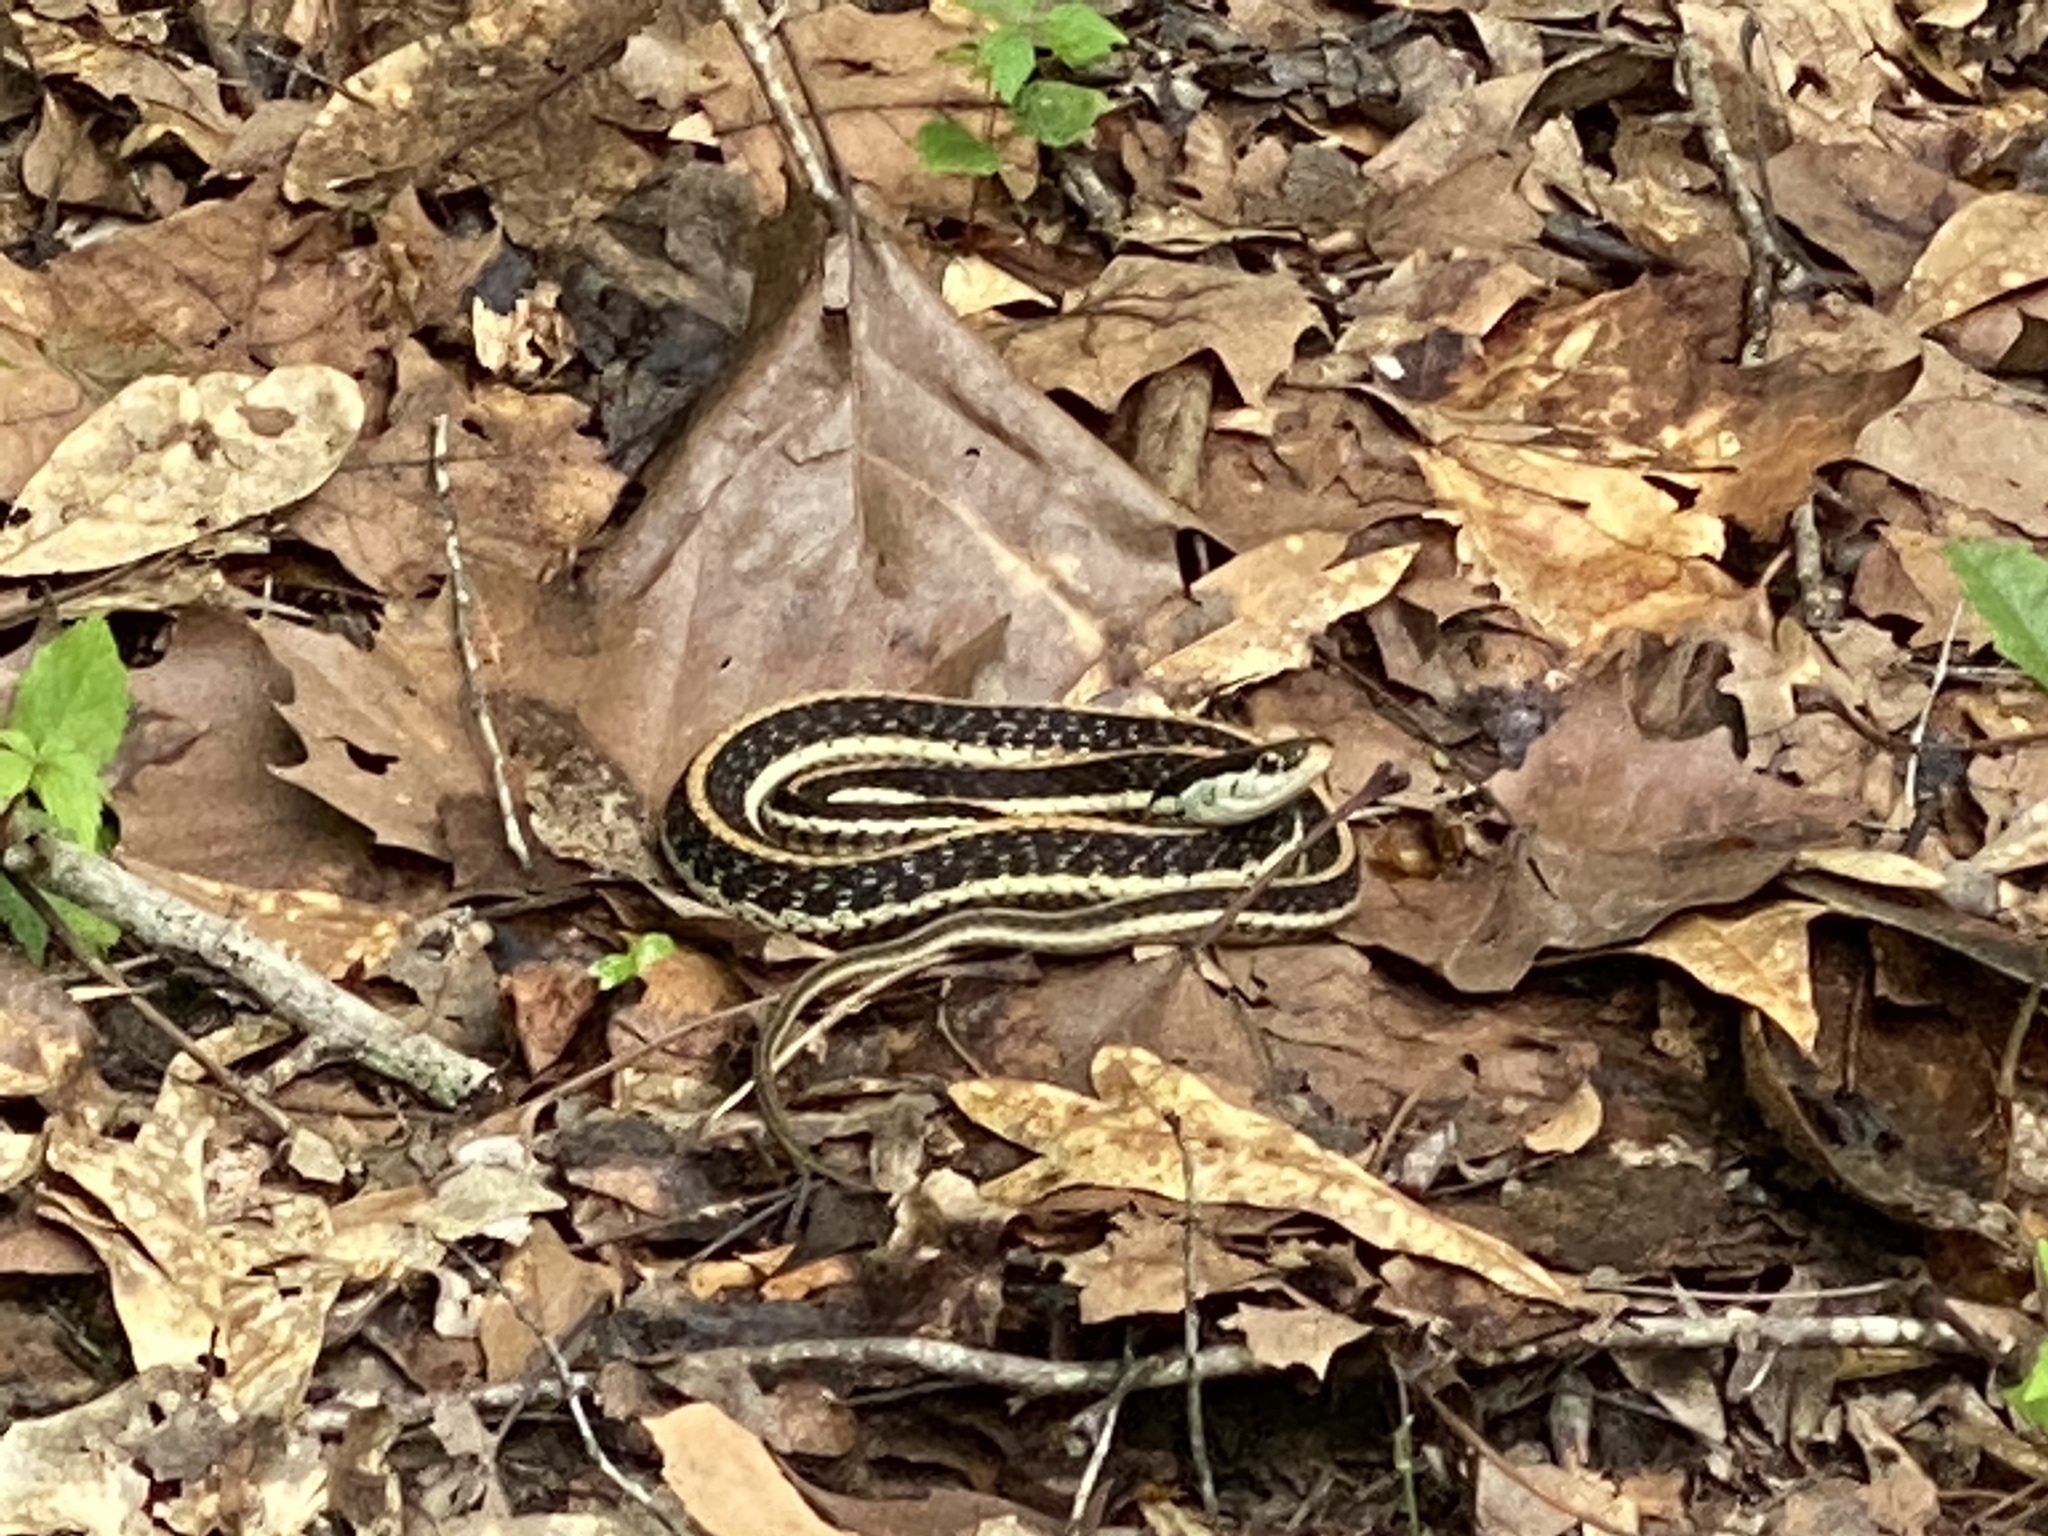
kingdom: Animalia
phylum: Chordata
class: Squamata
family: Colubridae
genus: Thamnophis
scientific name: Thamnophis sirtalis
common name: Common garter snake
